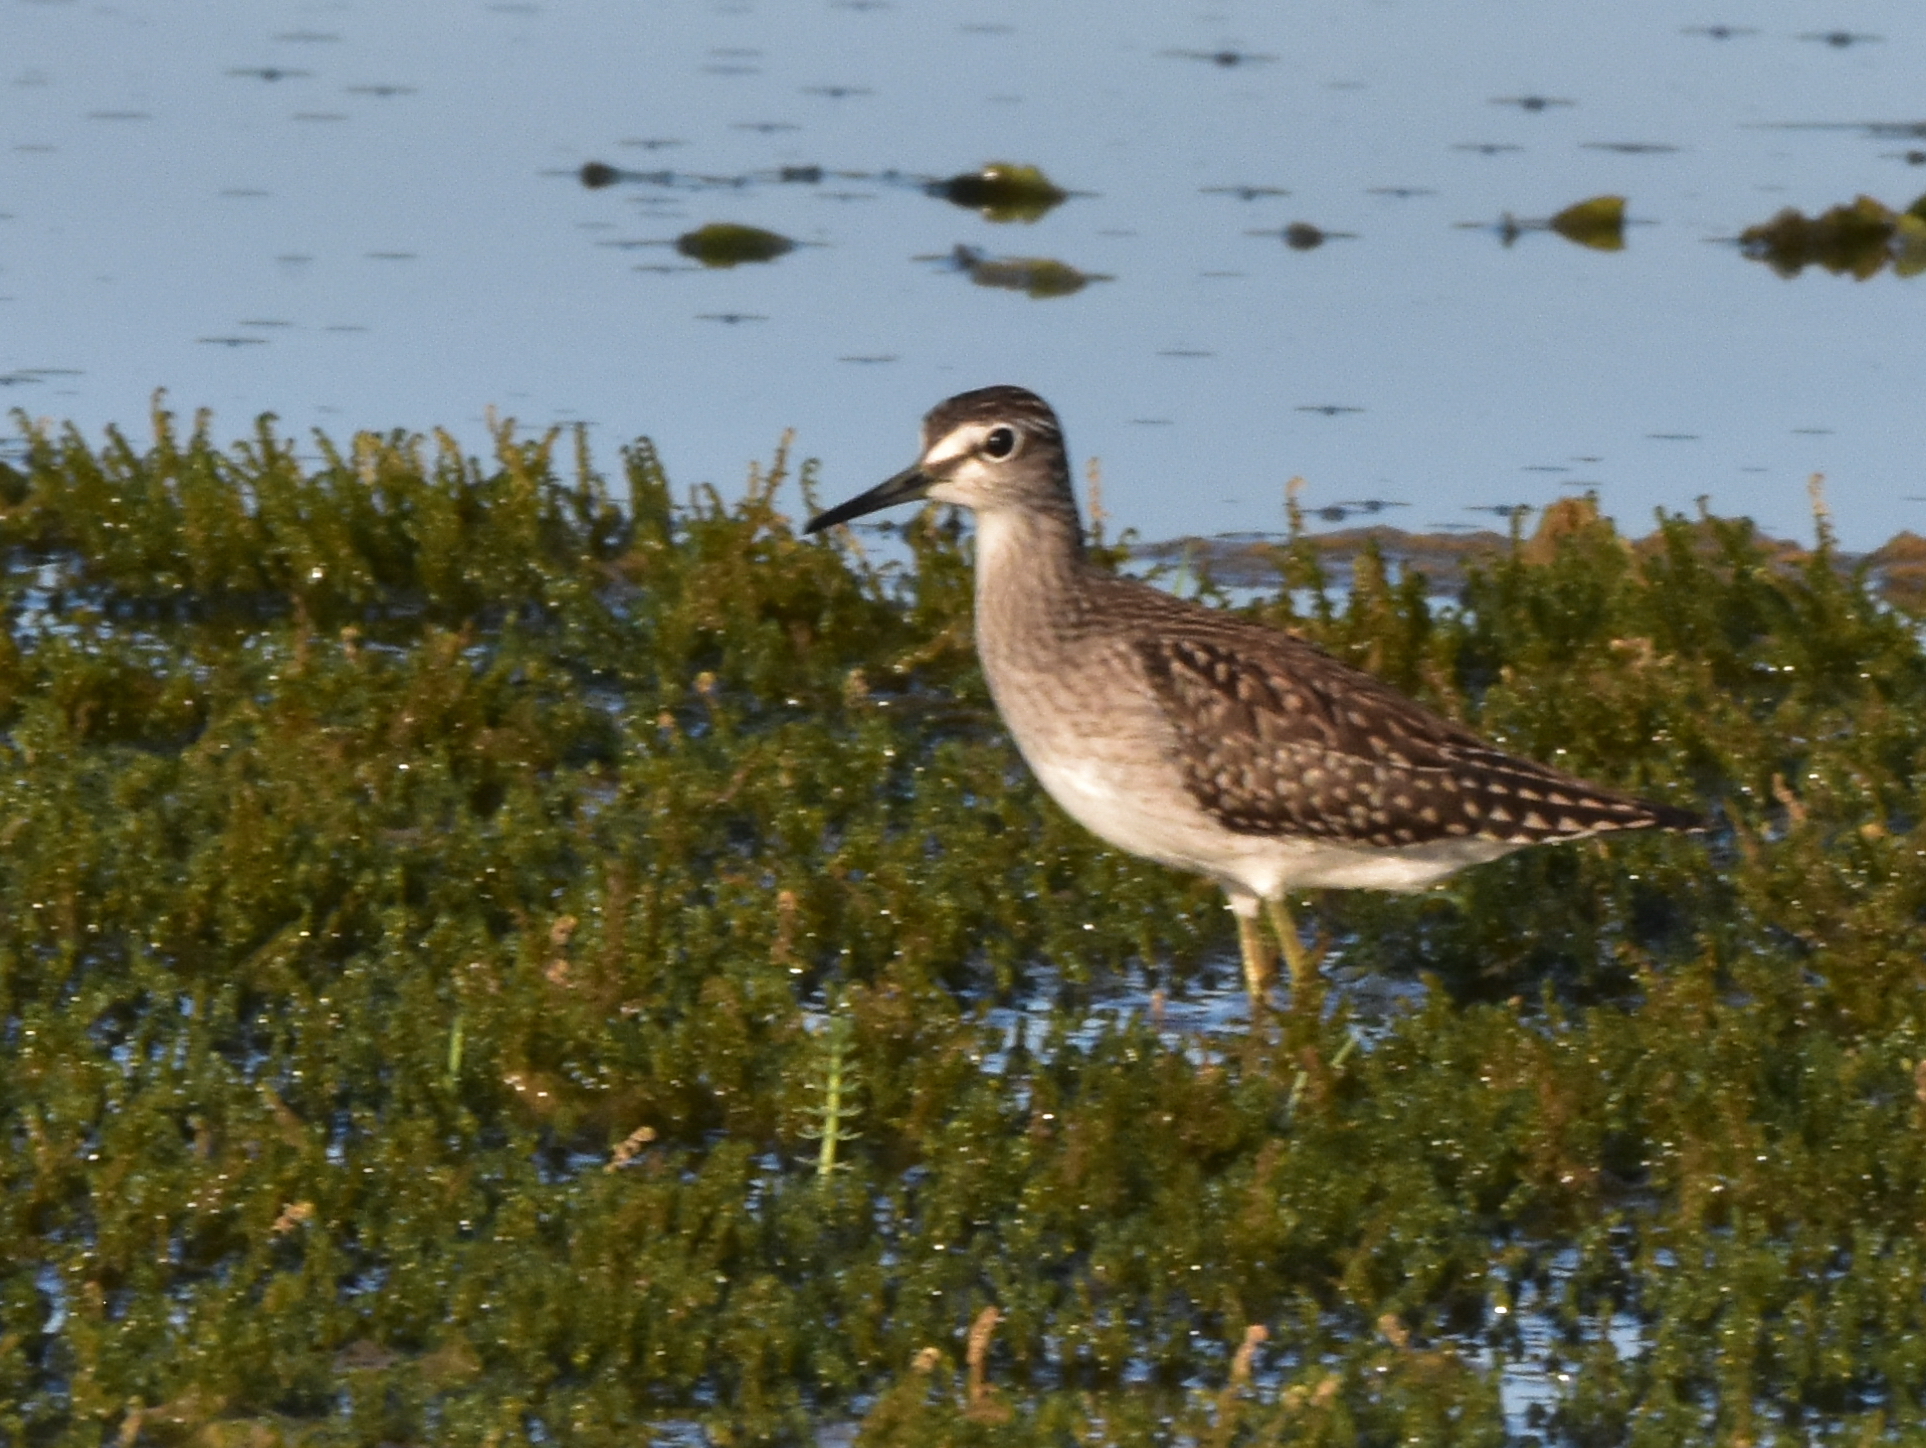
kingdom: Animalia
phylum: Chordata
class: Aves
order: Charadriiformes
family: Scolopacidae
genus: Tringa
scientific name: Tringa glareola
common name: Wood sandpiper
